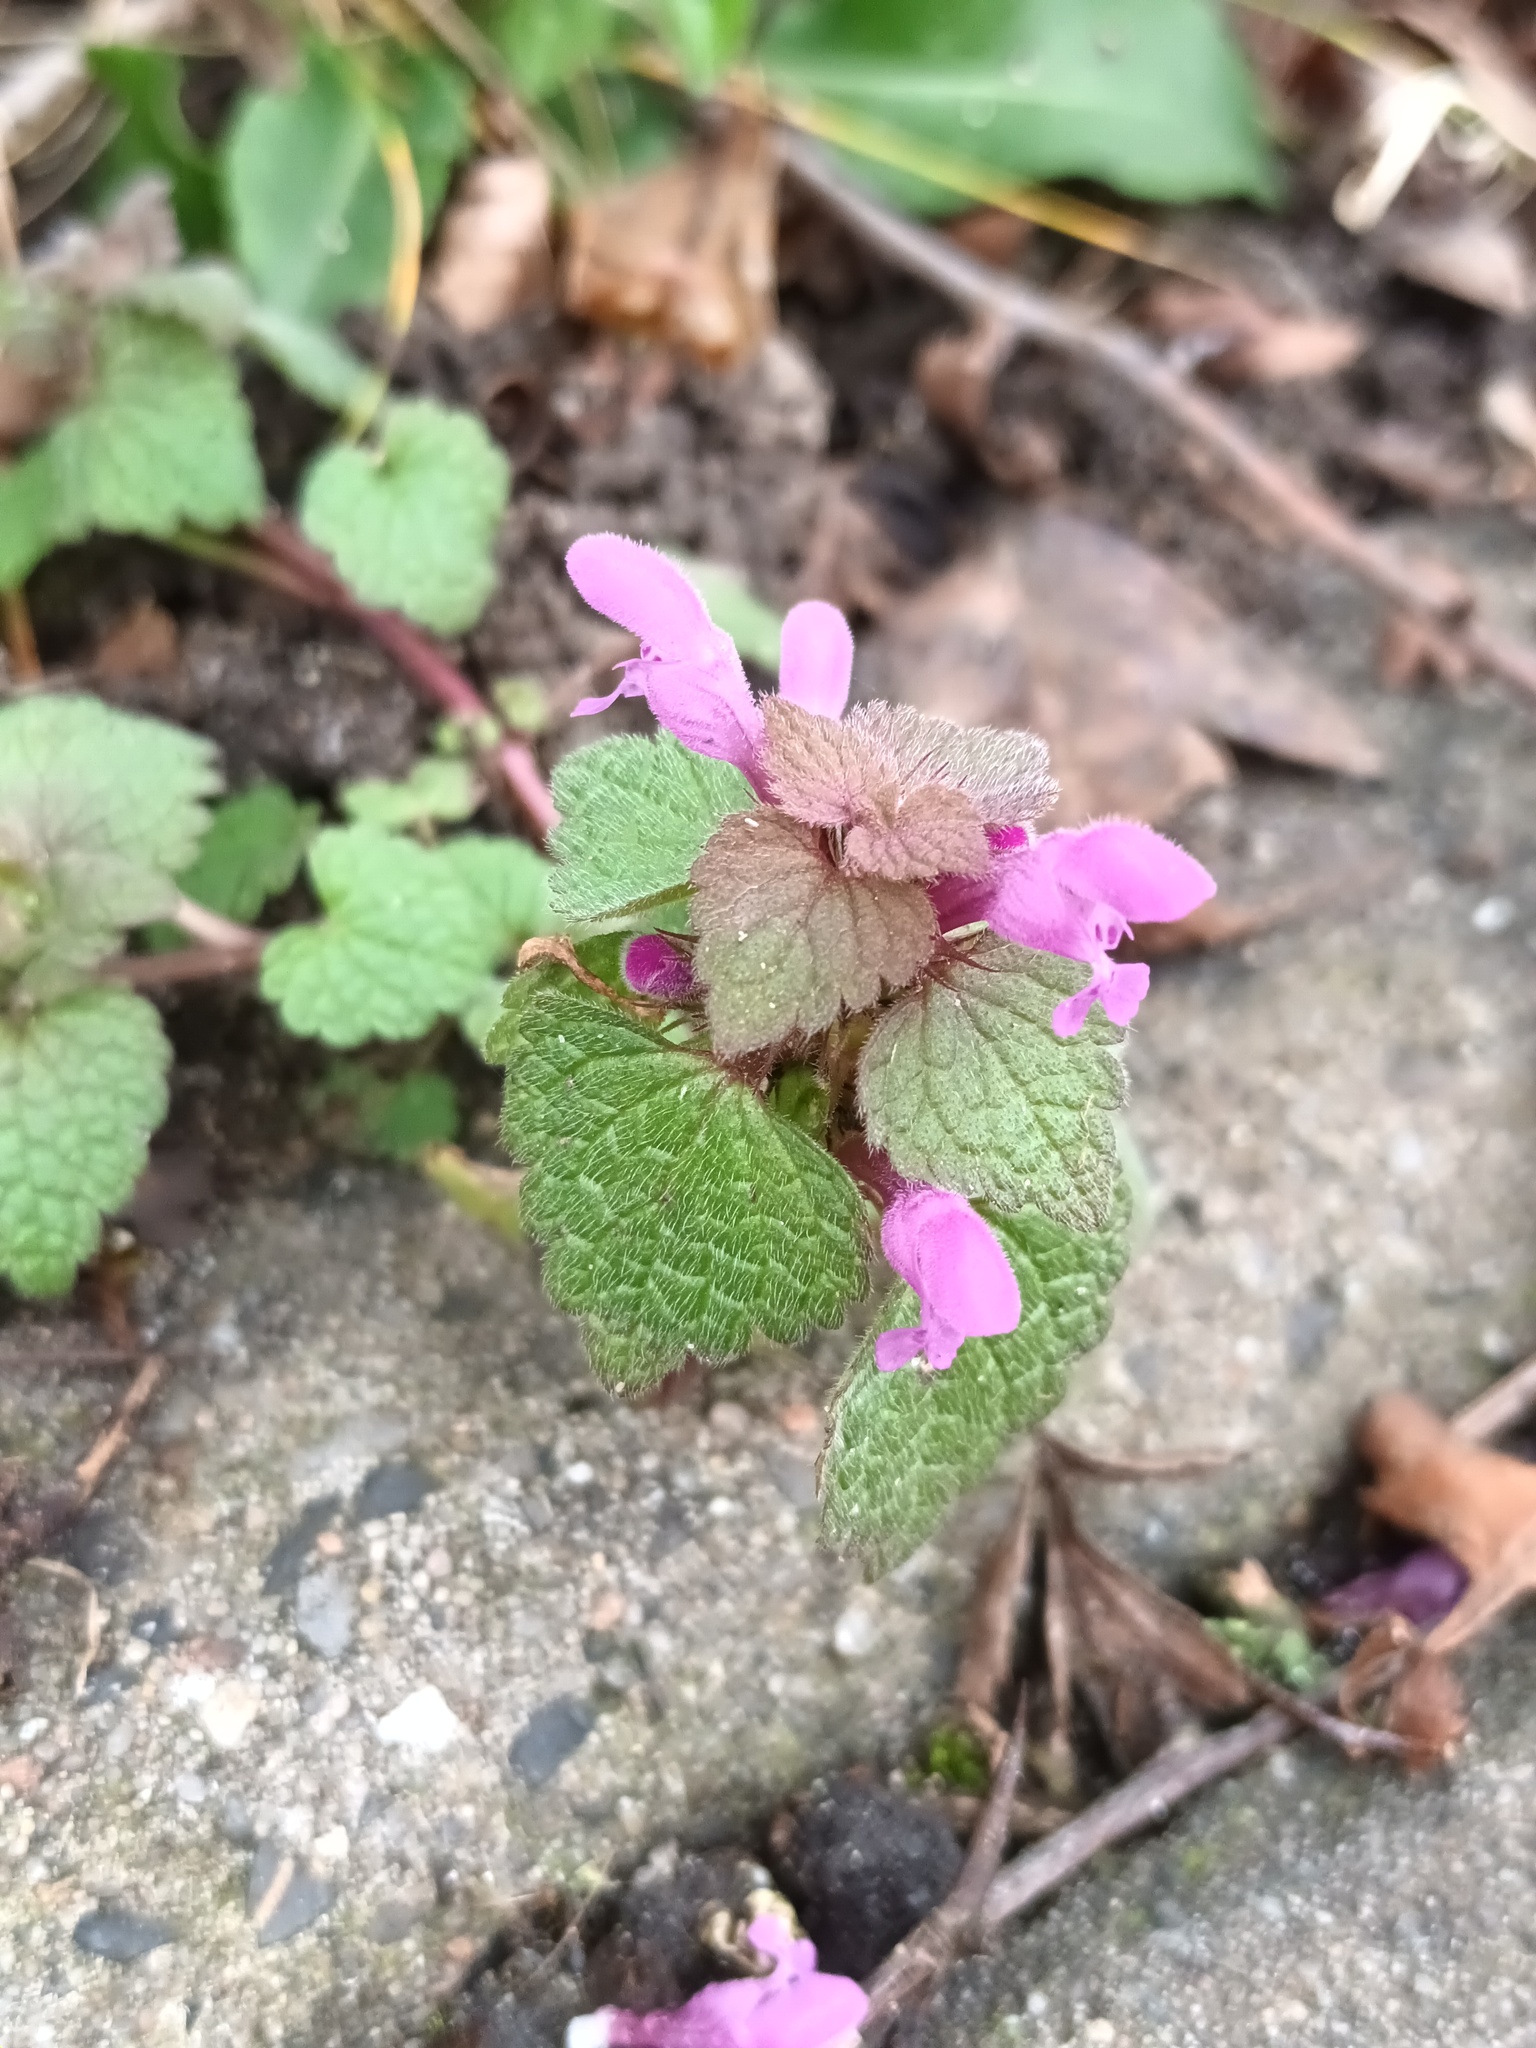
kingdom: Plantae
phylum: Tracheophyta
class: Magnoliopsida
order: Lamiales
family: Lamiaceae
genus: Lamium
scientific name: Lamium purpureum
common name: Red dead-nettle
